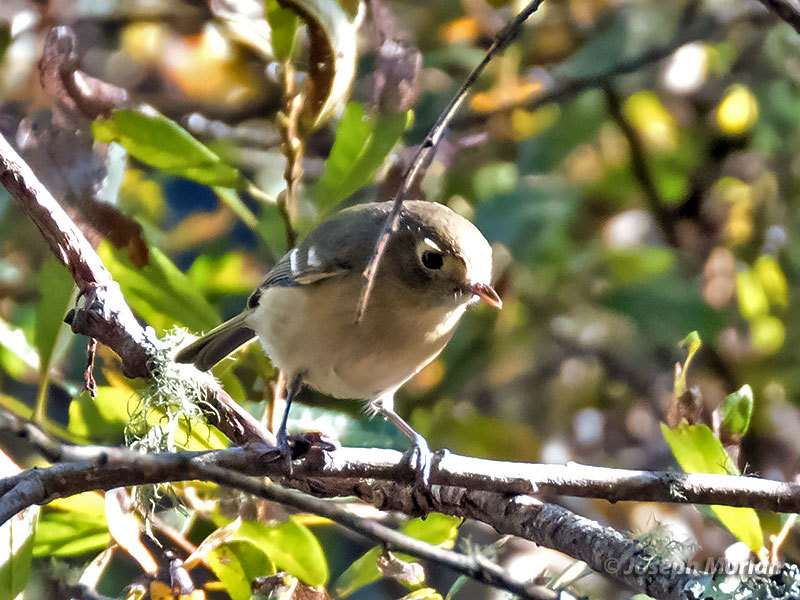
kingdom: Animalia
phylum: Chordata
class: Aves
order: Passeriformes
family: Vireonidae
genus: Vireo
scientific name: Vireo huttoni
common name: Hutton's vireo
